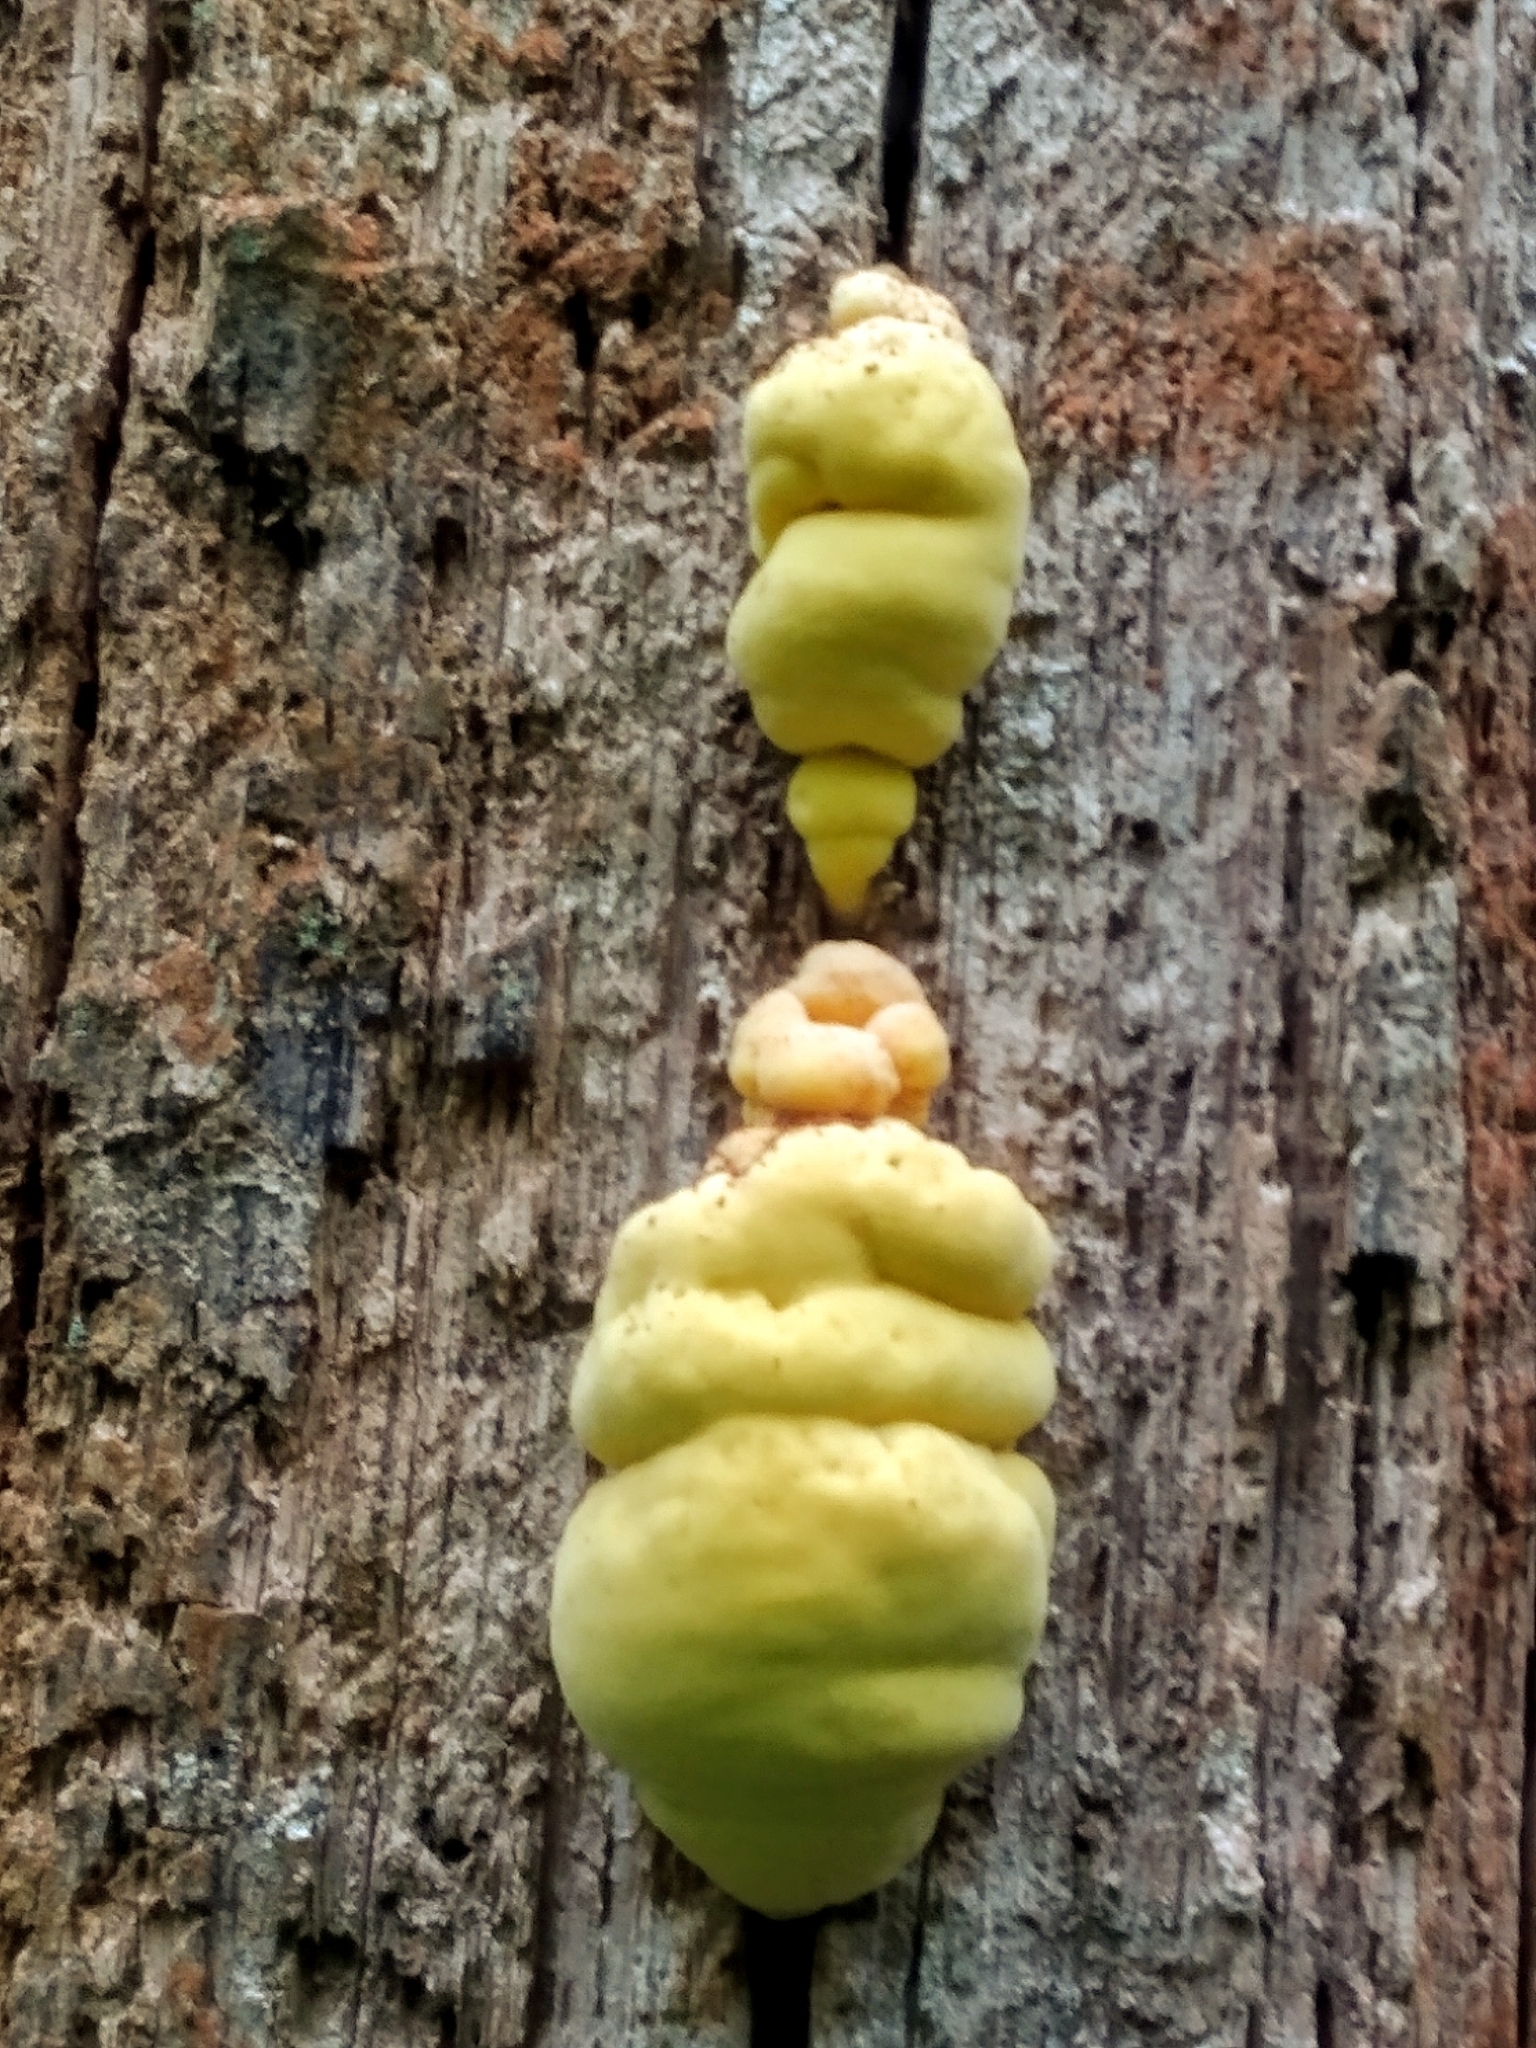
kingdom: Fungi
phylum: Basidiomycota
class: Agaricomycetes
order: Polyporales
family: Laetiporaceae
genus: Laetiporus
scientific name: Laetiporus sulphureus
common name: Chicken of the woods
